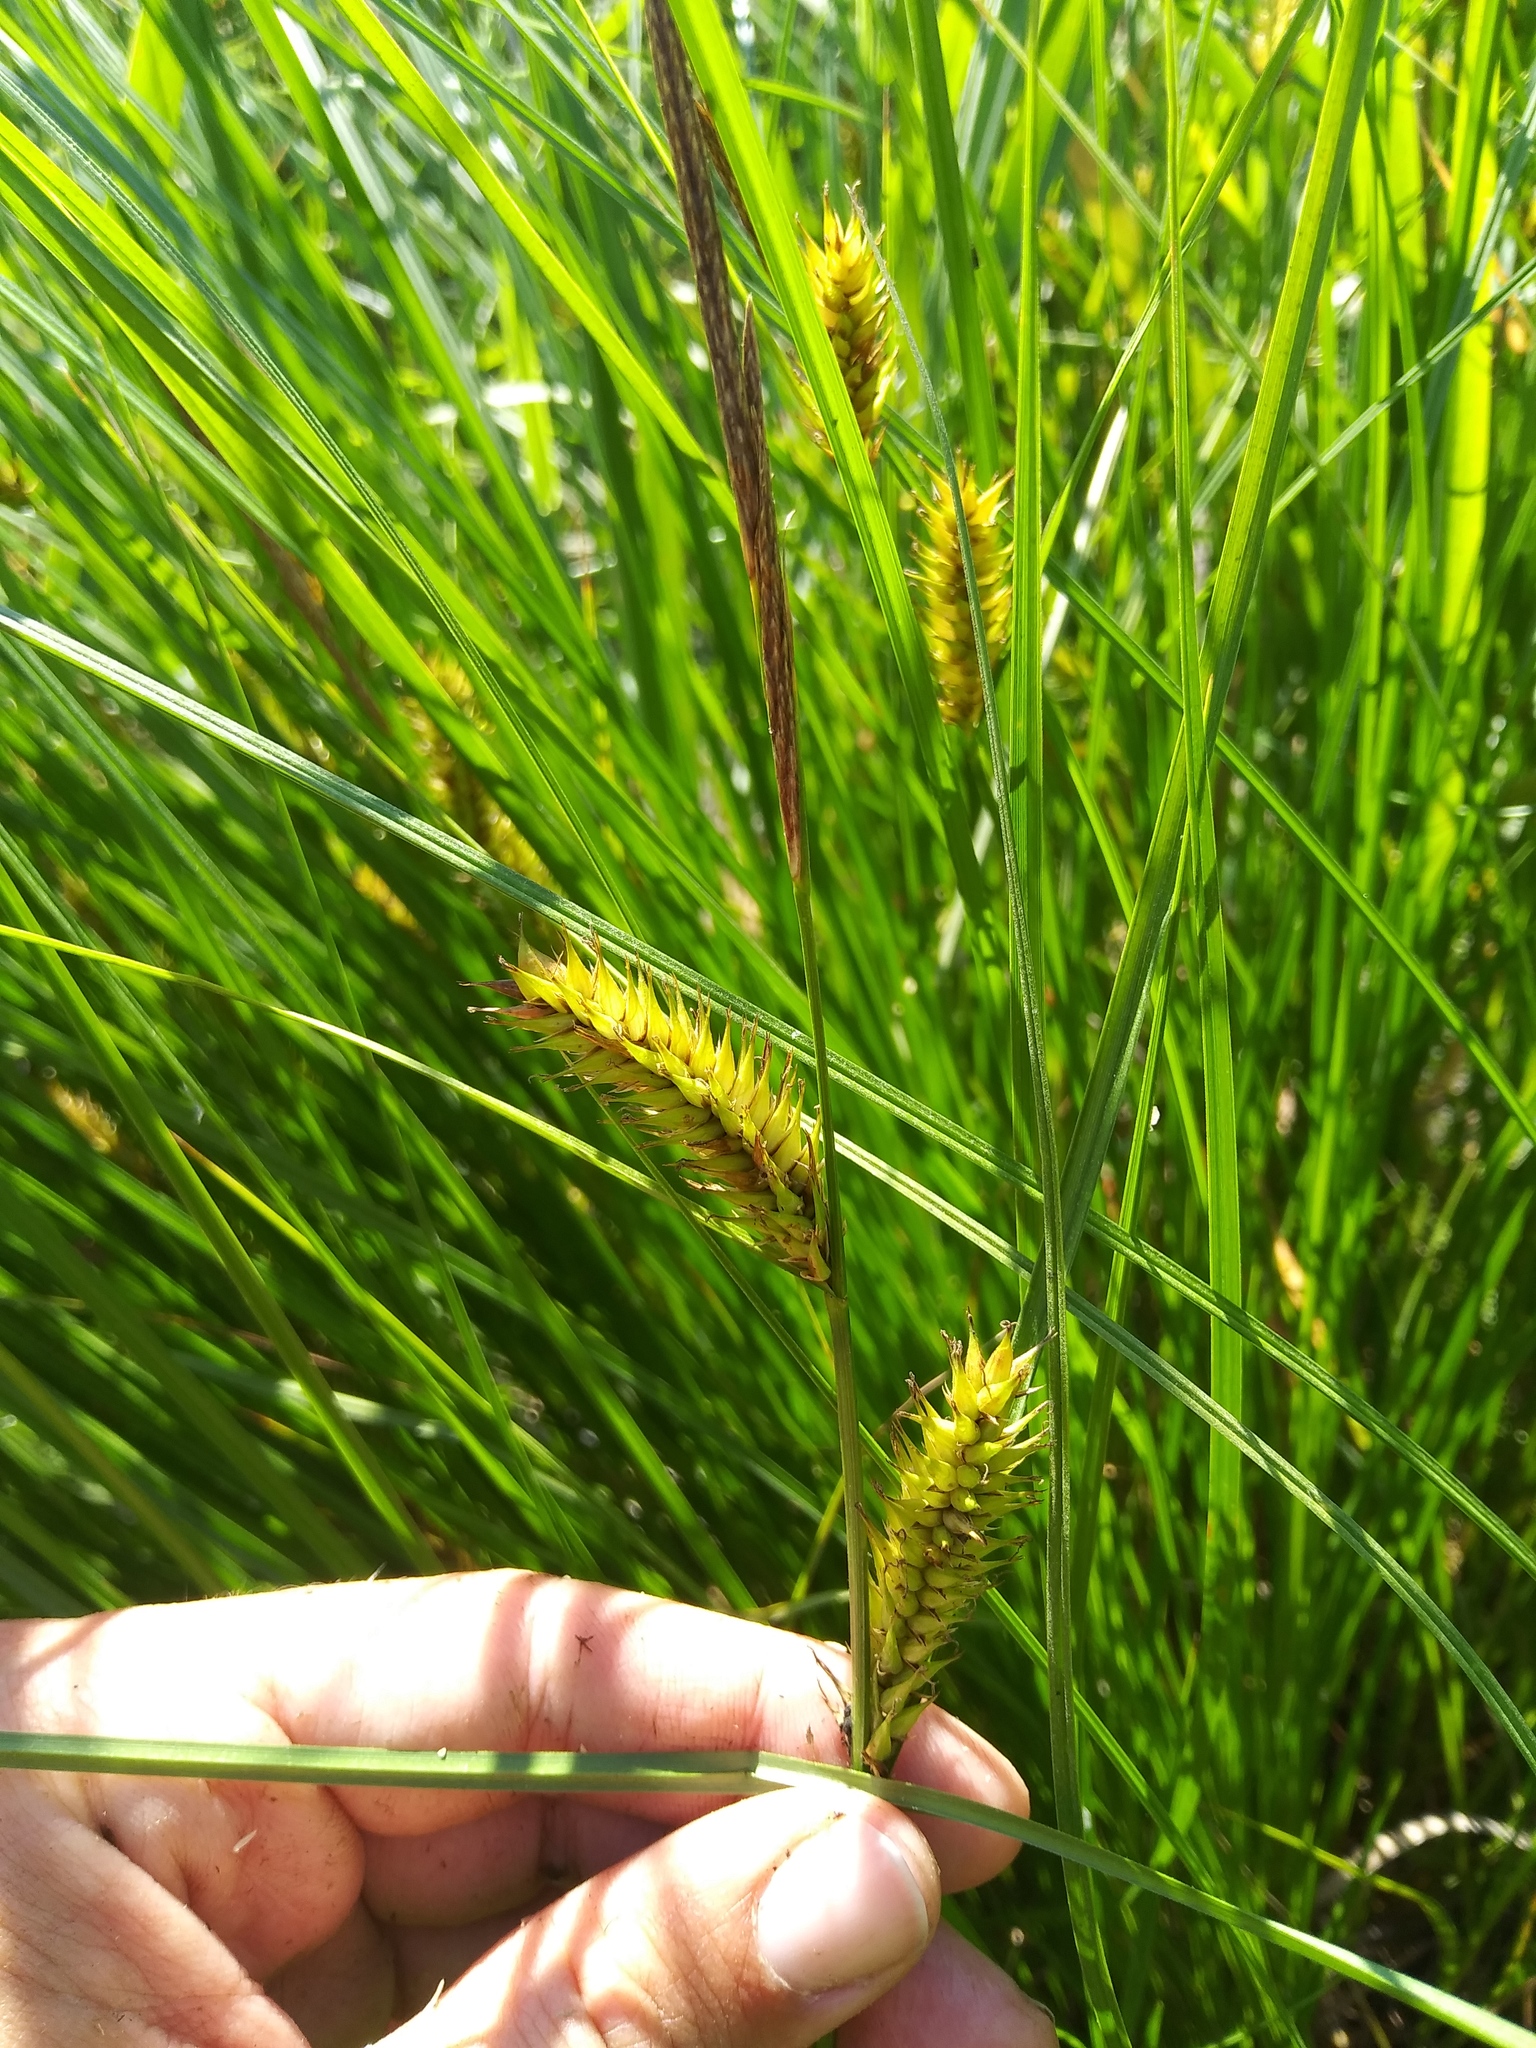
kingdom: Plantae
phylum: Tracheophyta
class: Liliopsida
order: Poales
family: Cyperaceae
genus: Carex
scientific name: Carex vesicaria
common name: Bladder-sedge
